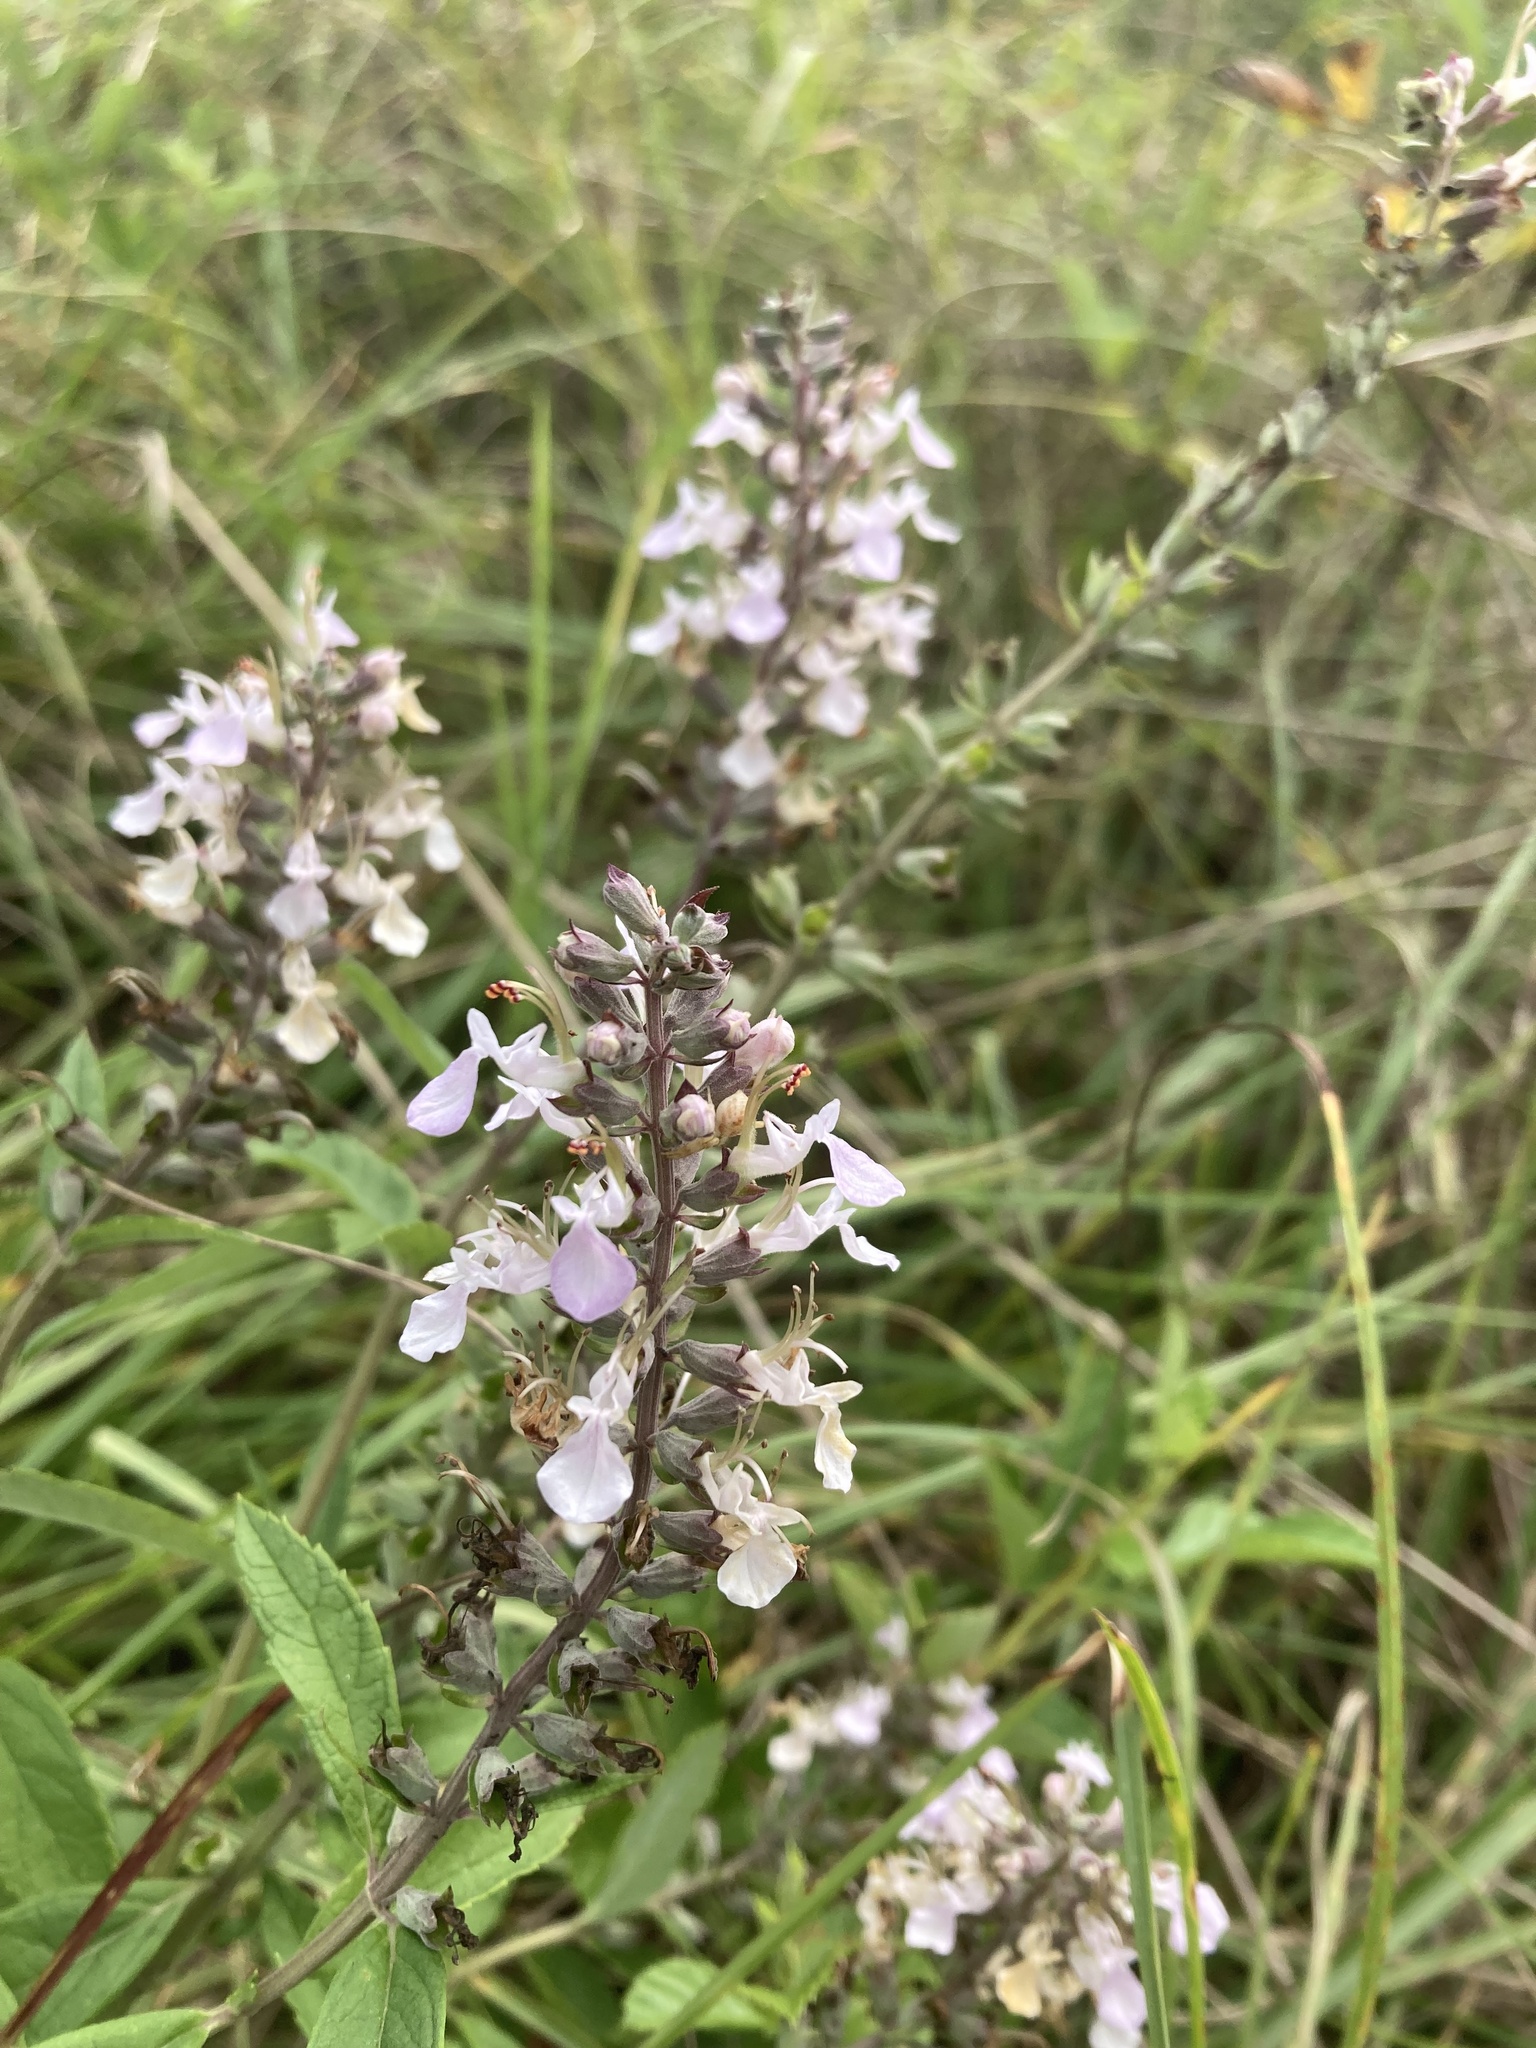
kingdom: Plantae
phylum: Tracheophyta
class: Magnoliopsida
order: Lamiales
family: Lamiaceae
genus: Teucrium
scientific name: Teucrium canadense
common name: American germander
